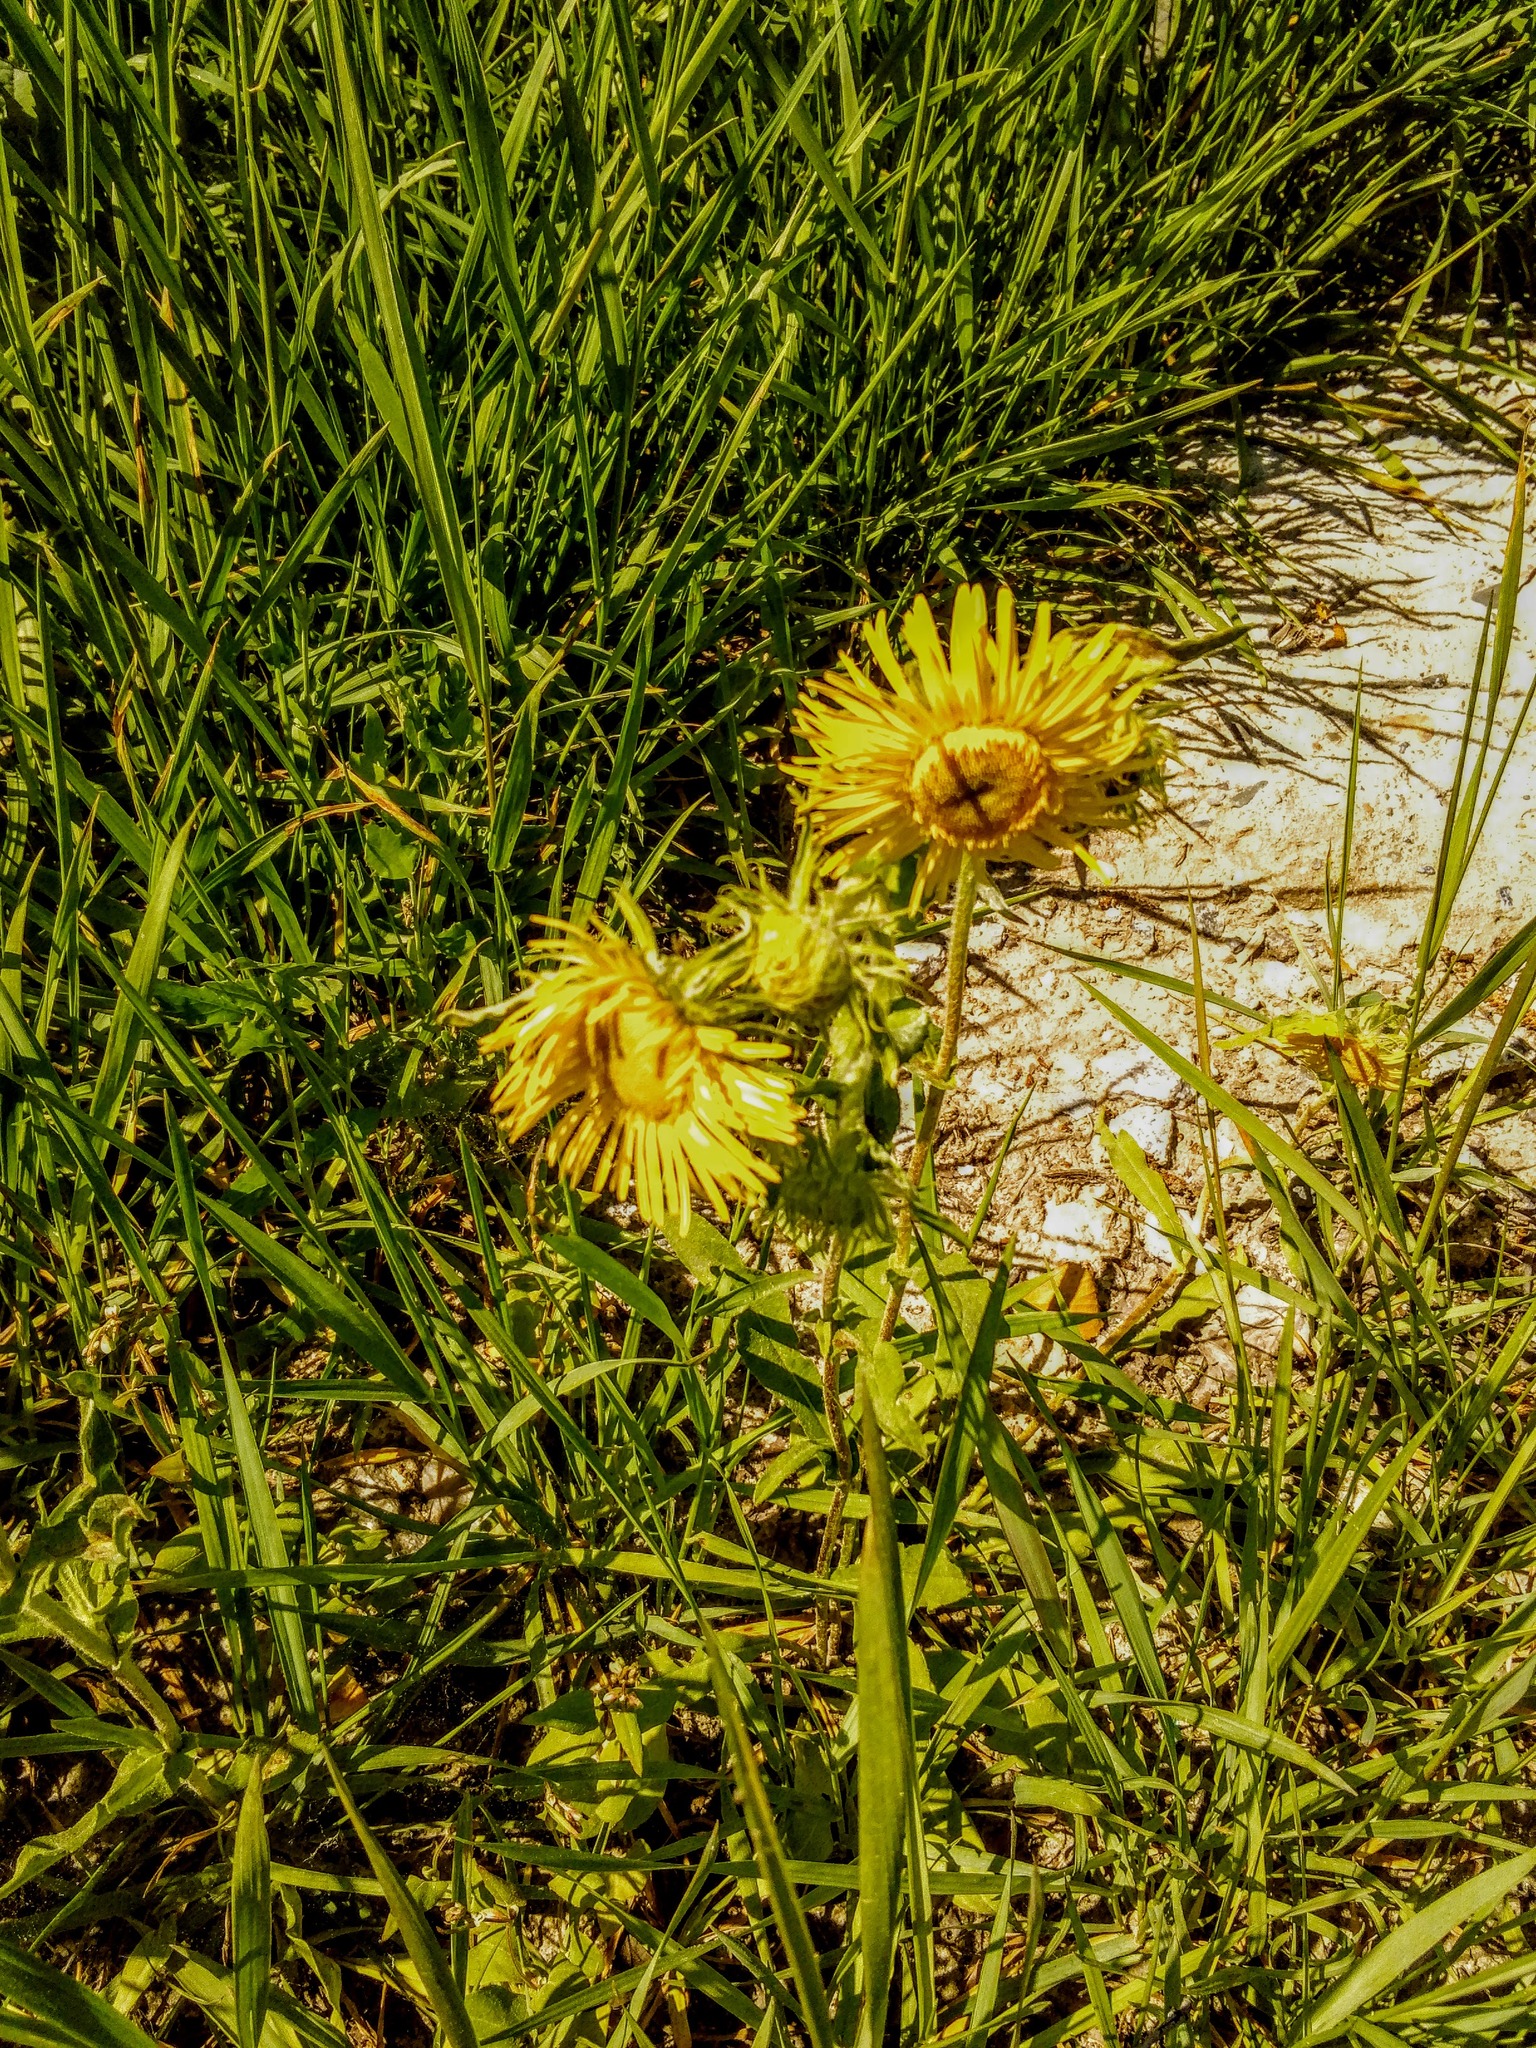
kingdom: Plantae
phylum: Tracheophyta
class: Magnoliopsida
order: Asterales
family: Asteraceae
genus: Pentanema
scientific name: Pentanema britannicum
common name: British elecampane
